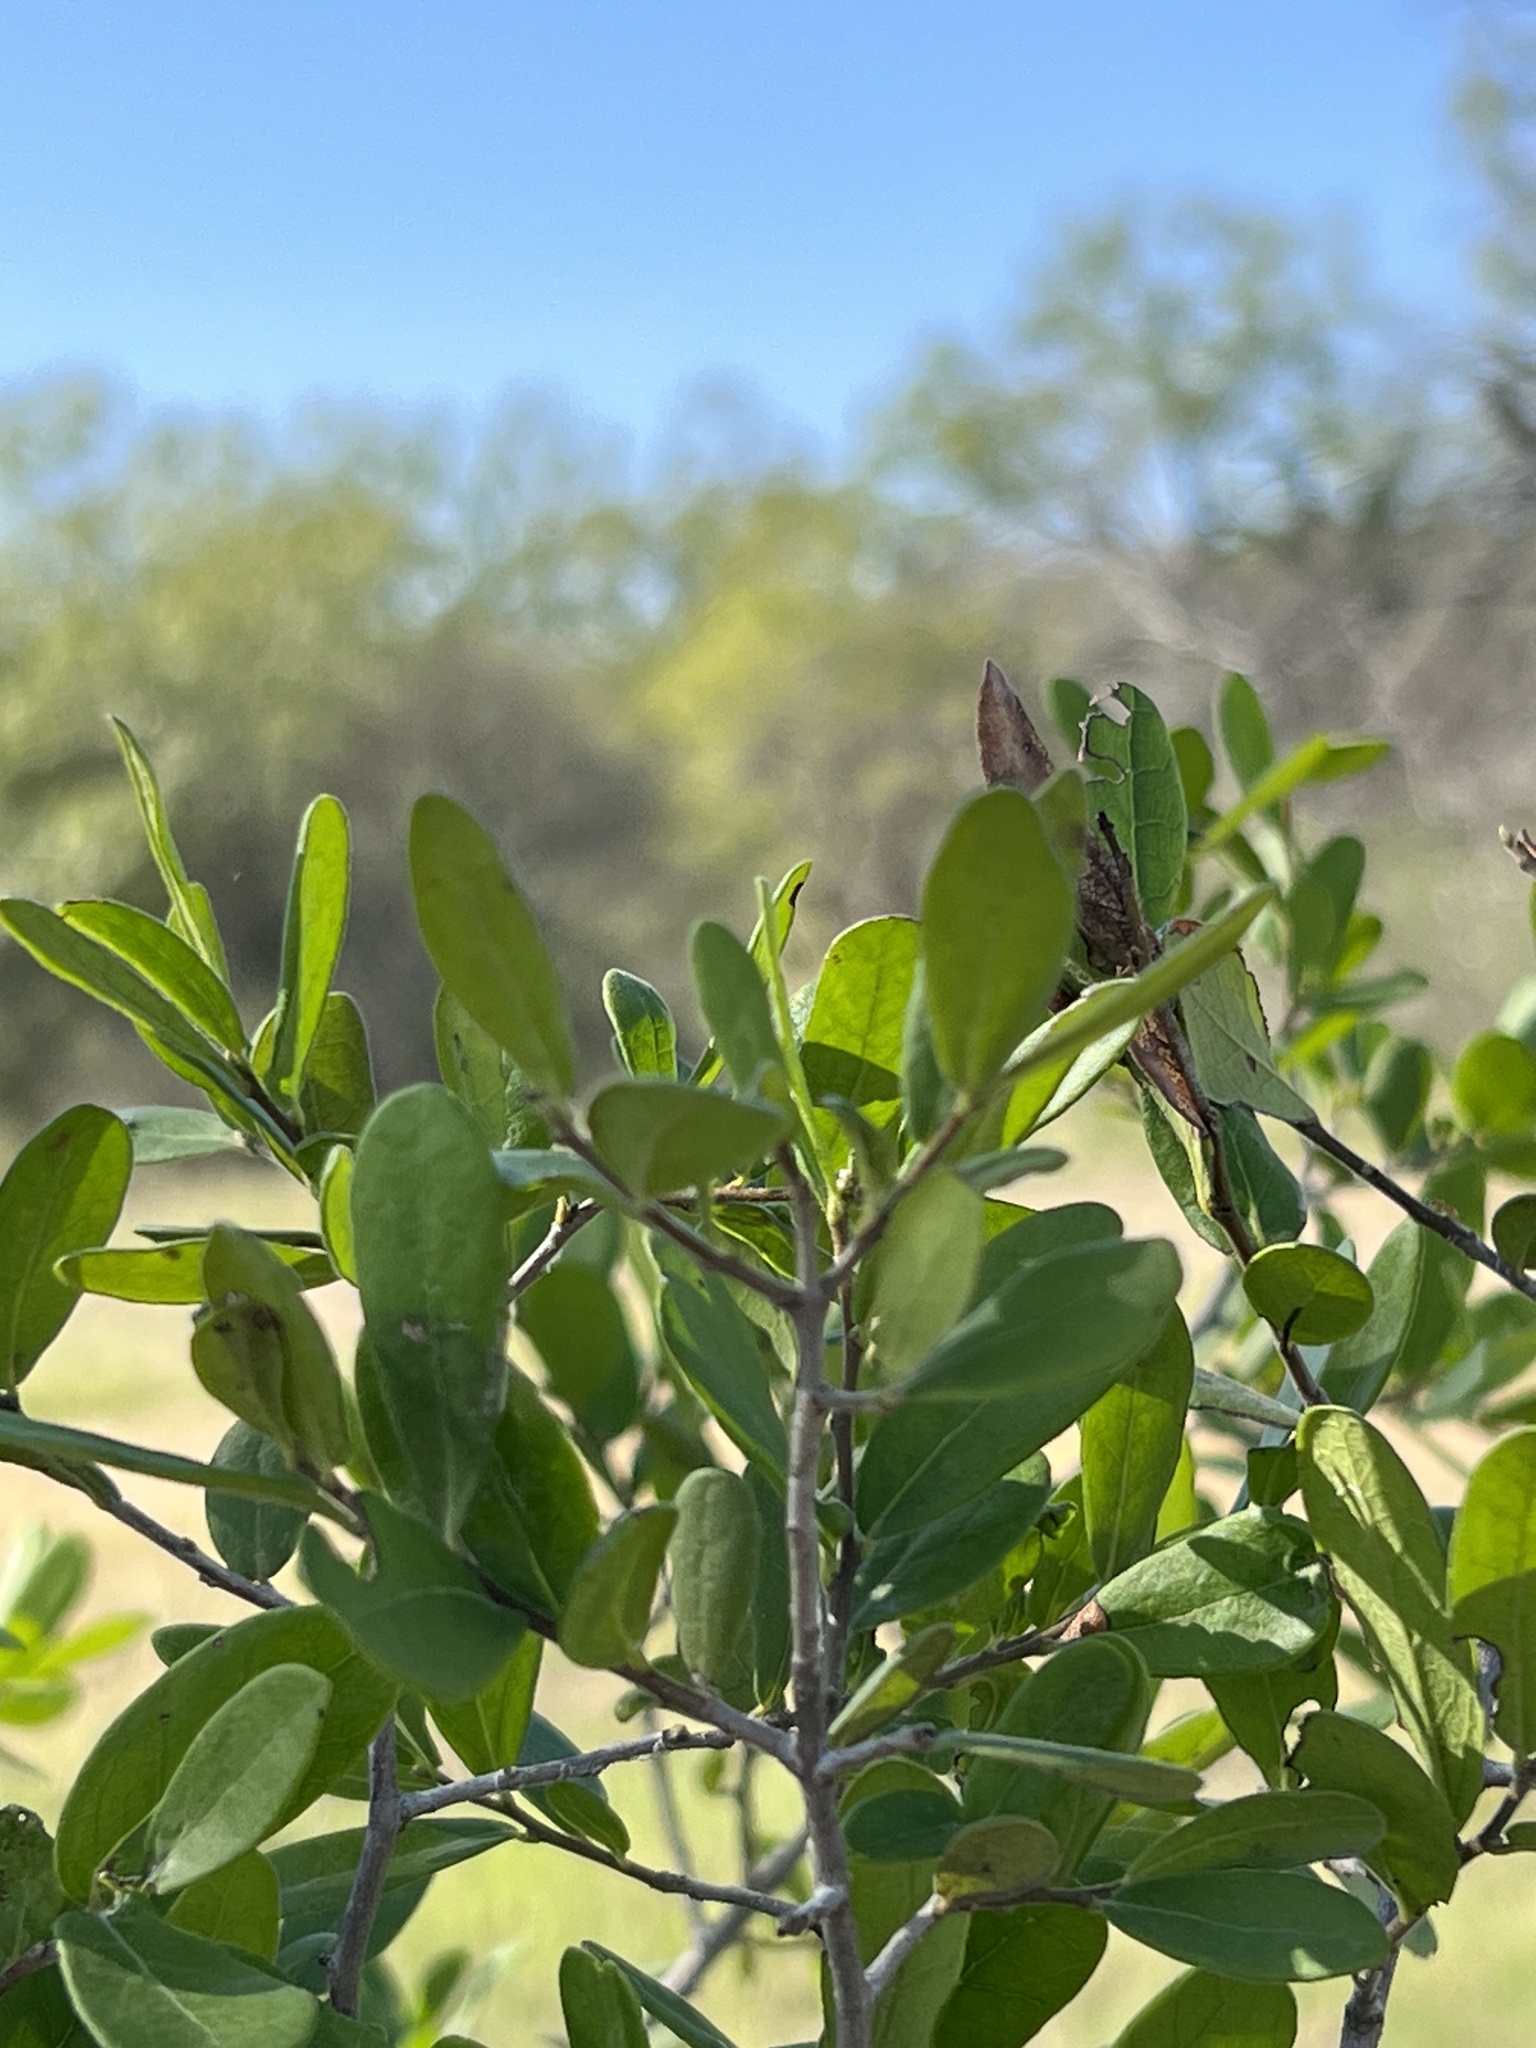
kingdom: Plantae
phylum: Tracheophyta
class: Magnoliopsida
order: Ericales
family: Ebenaceae
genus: Diospyros
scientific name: Diospyros texana
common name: Texas persimmon
